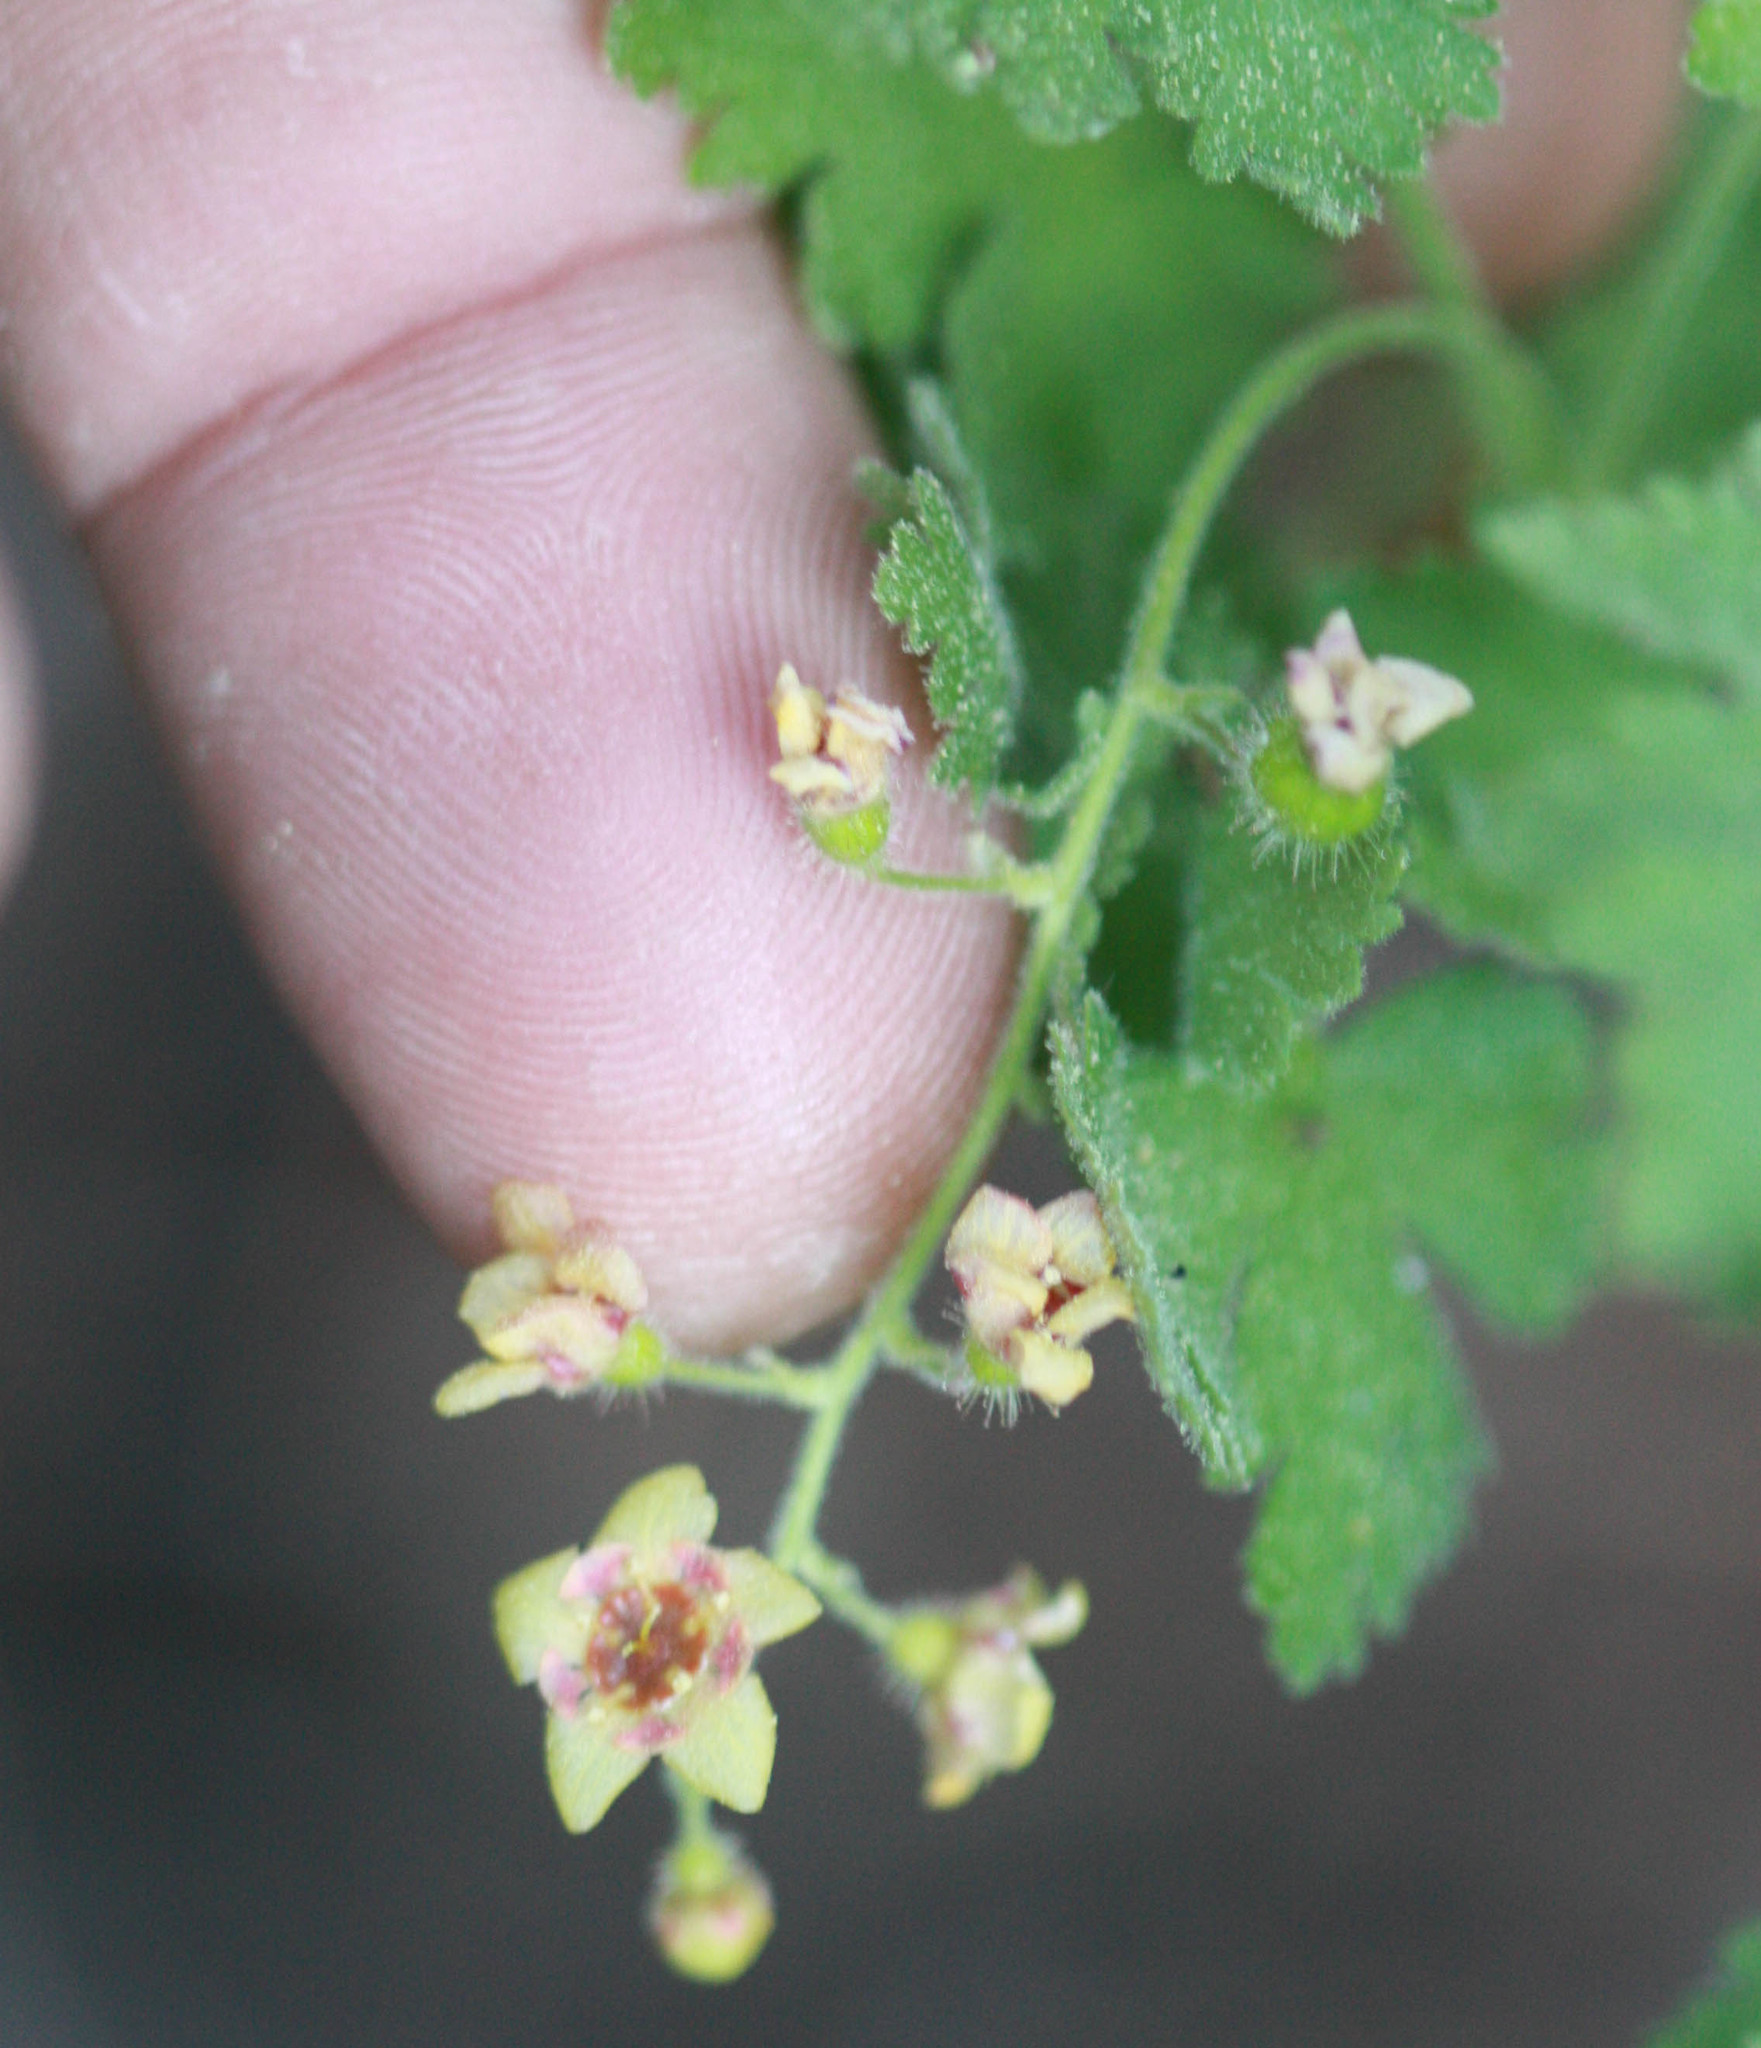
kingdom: Plantae
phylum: Tracheophyta
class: Magnoliopsida
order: Saxifragales
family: Grossulariaceae
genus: Ribes
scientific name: Ribes montigenum
